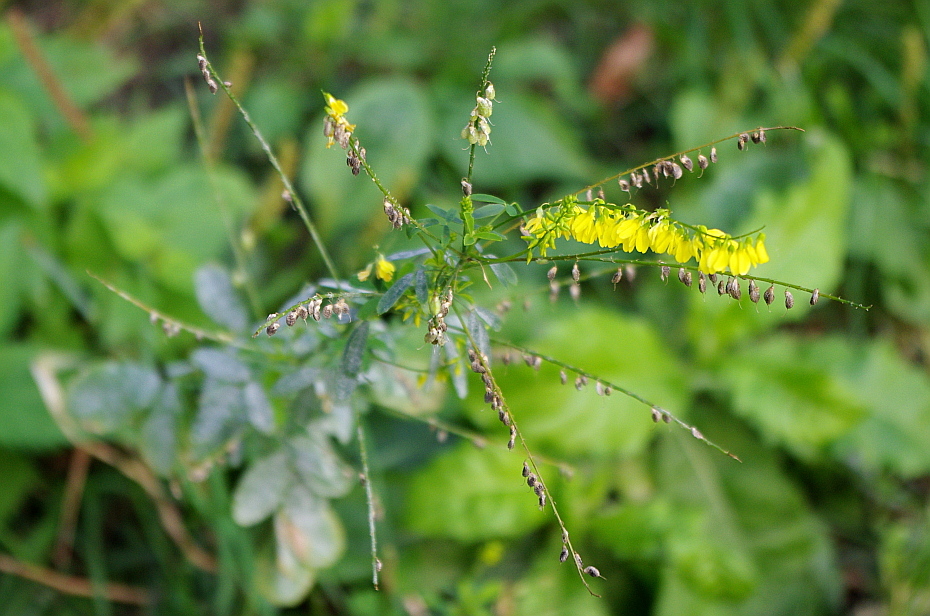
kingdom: Plantae
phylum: Tracheophyta
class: Magnoliopsida
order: Fabales
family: Fabaceae
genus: Melilotus
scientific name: Melilotus officinalis
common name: Sweetclover
